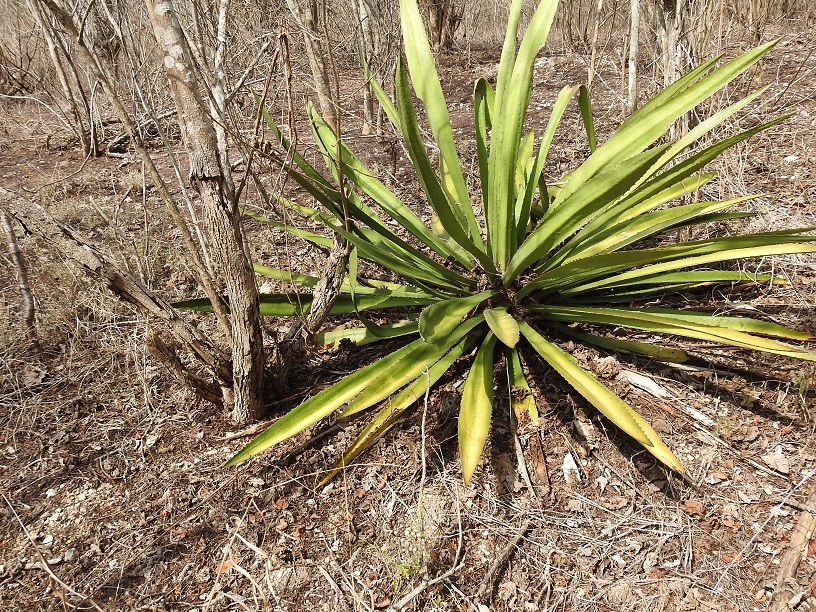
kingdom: Plantae
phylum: Tracheophyta
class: Liliopsida
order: Asparagales
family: Asparagaceae
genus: Furcraea
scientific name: Furcraea guatemalensis
